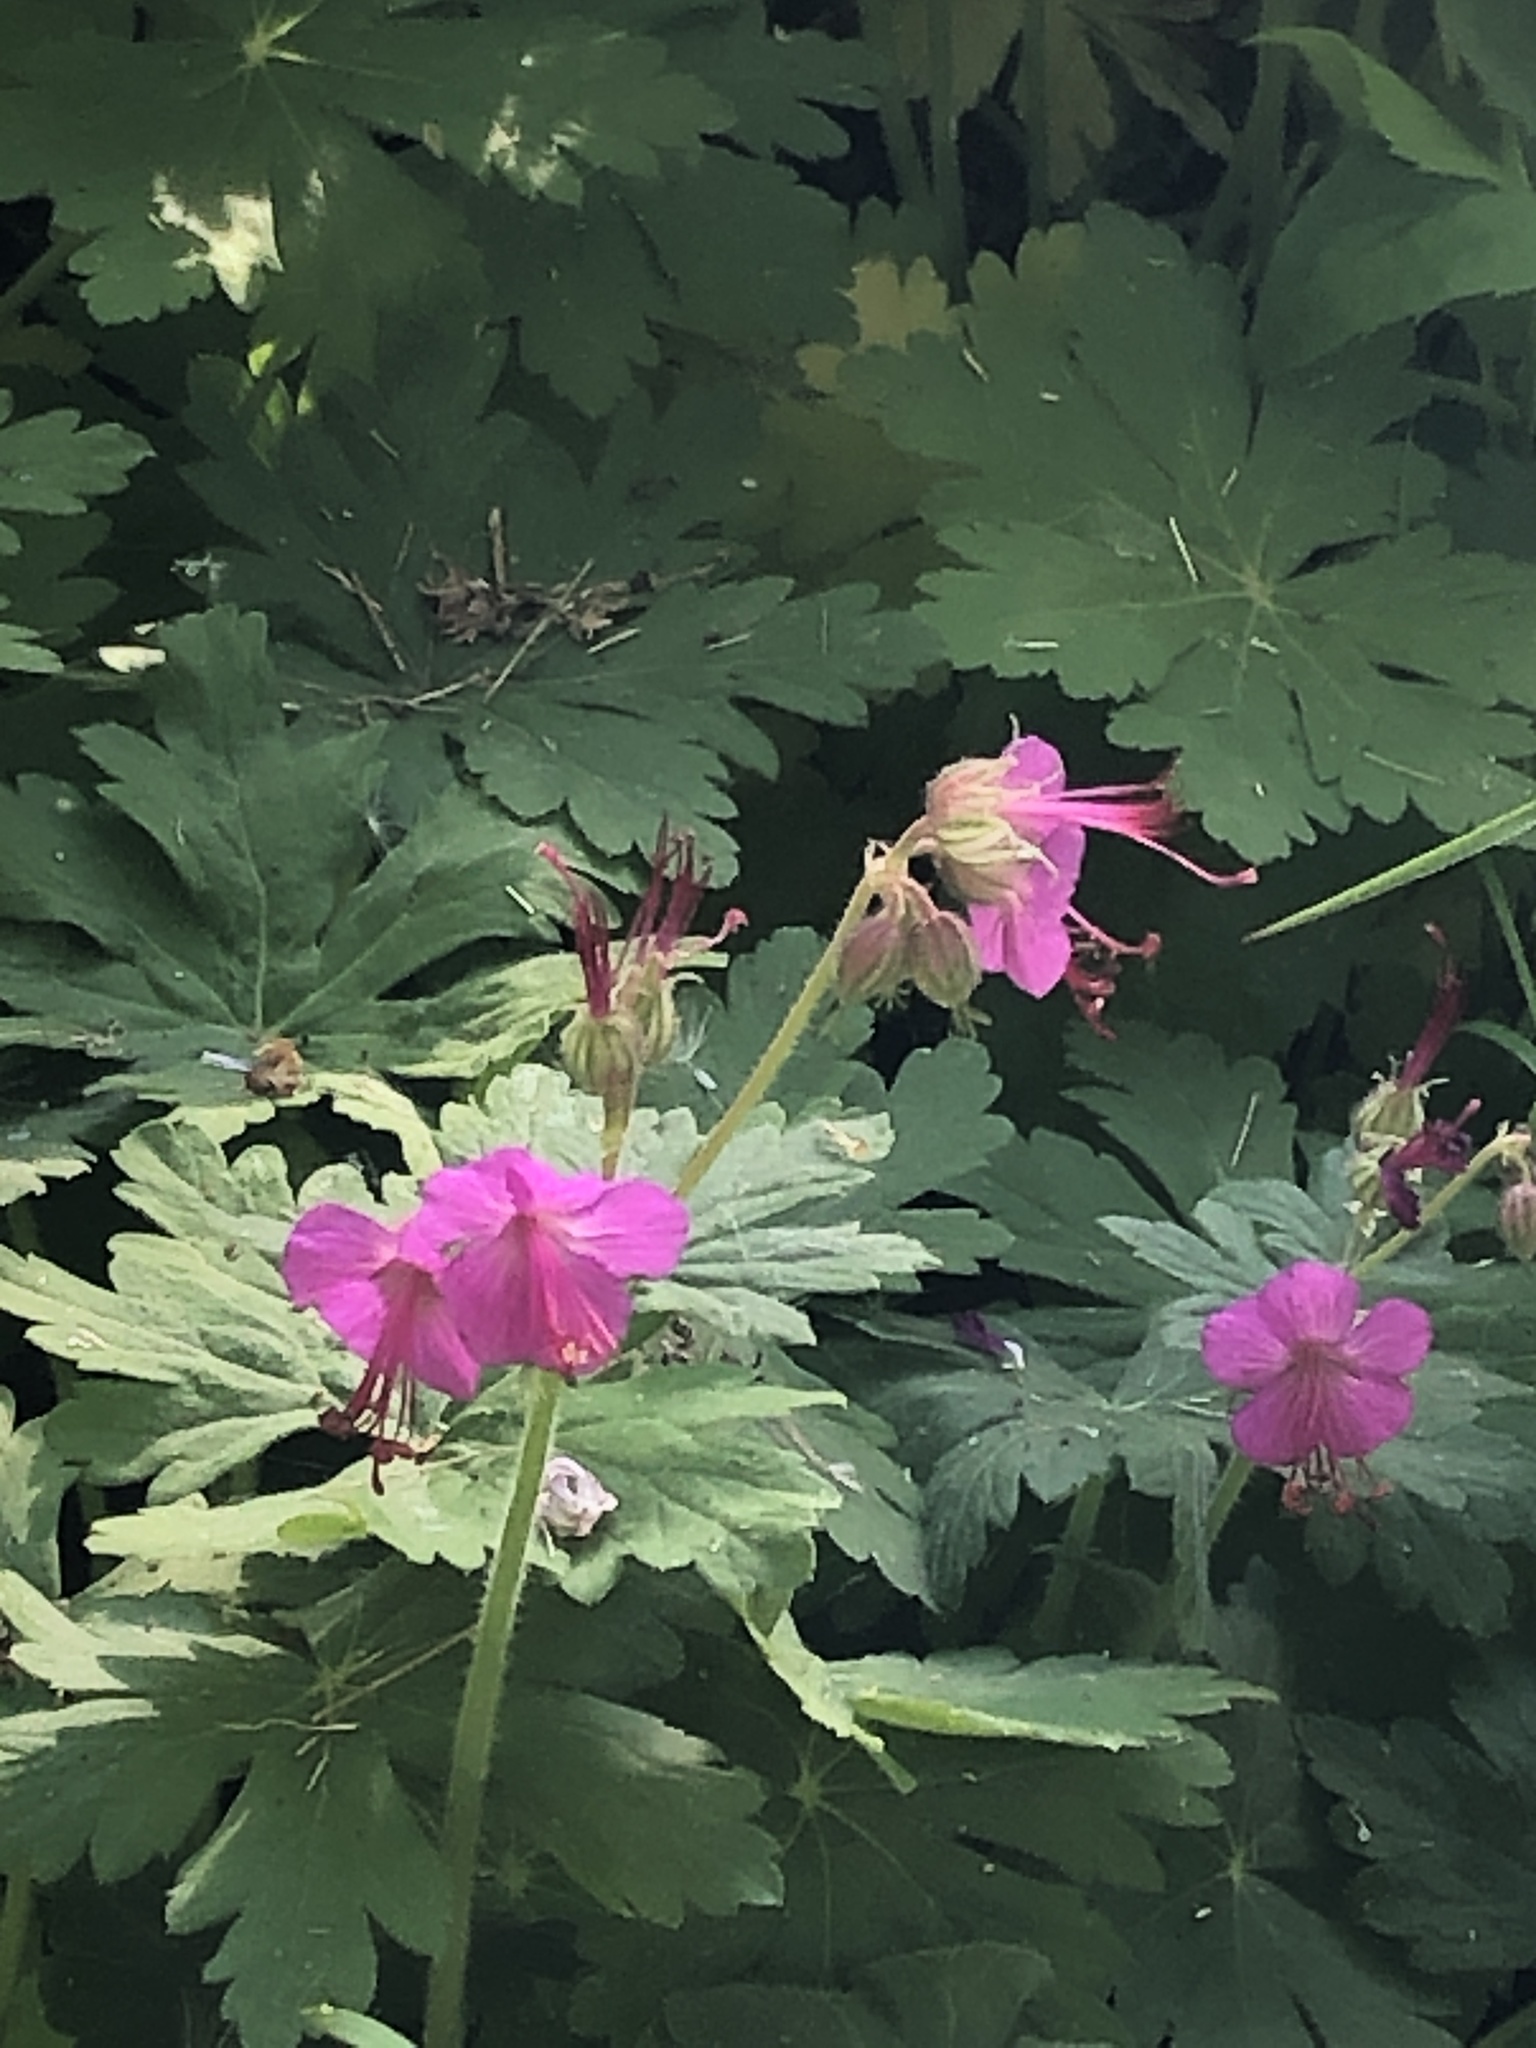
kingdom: Plantae
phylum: Tracheophyta
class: Magnoliopsida
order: Geraniales
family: Geraniaceae
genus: Geranium
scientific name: Geranium macrorrhizum
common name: Rock crane's-bill
